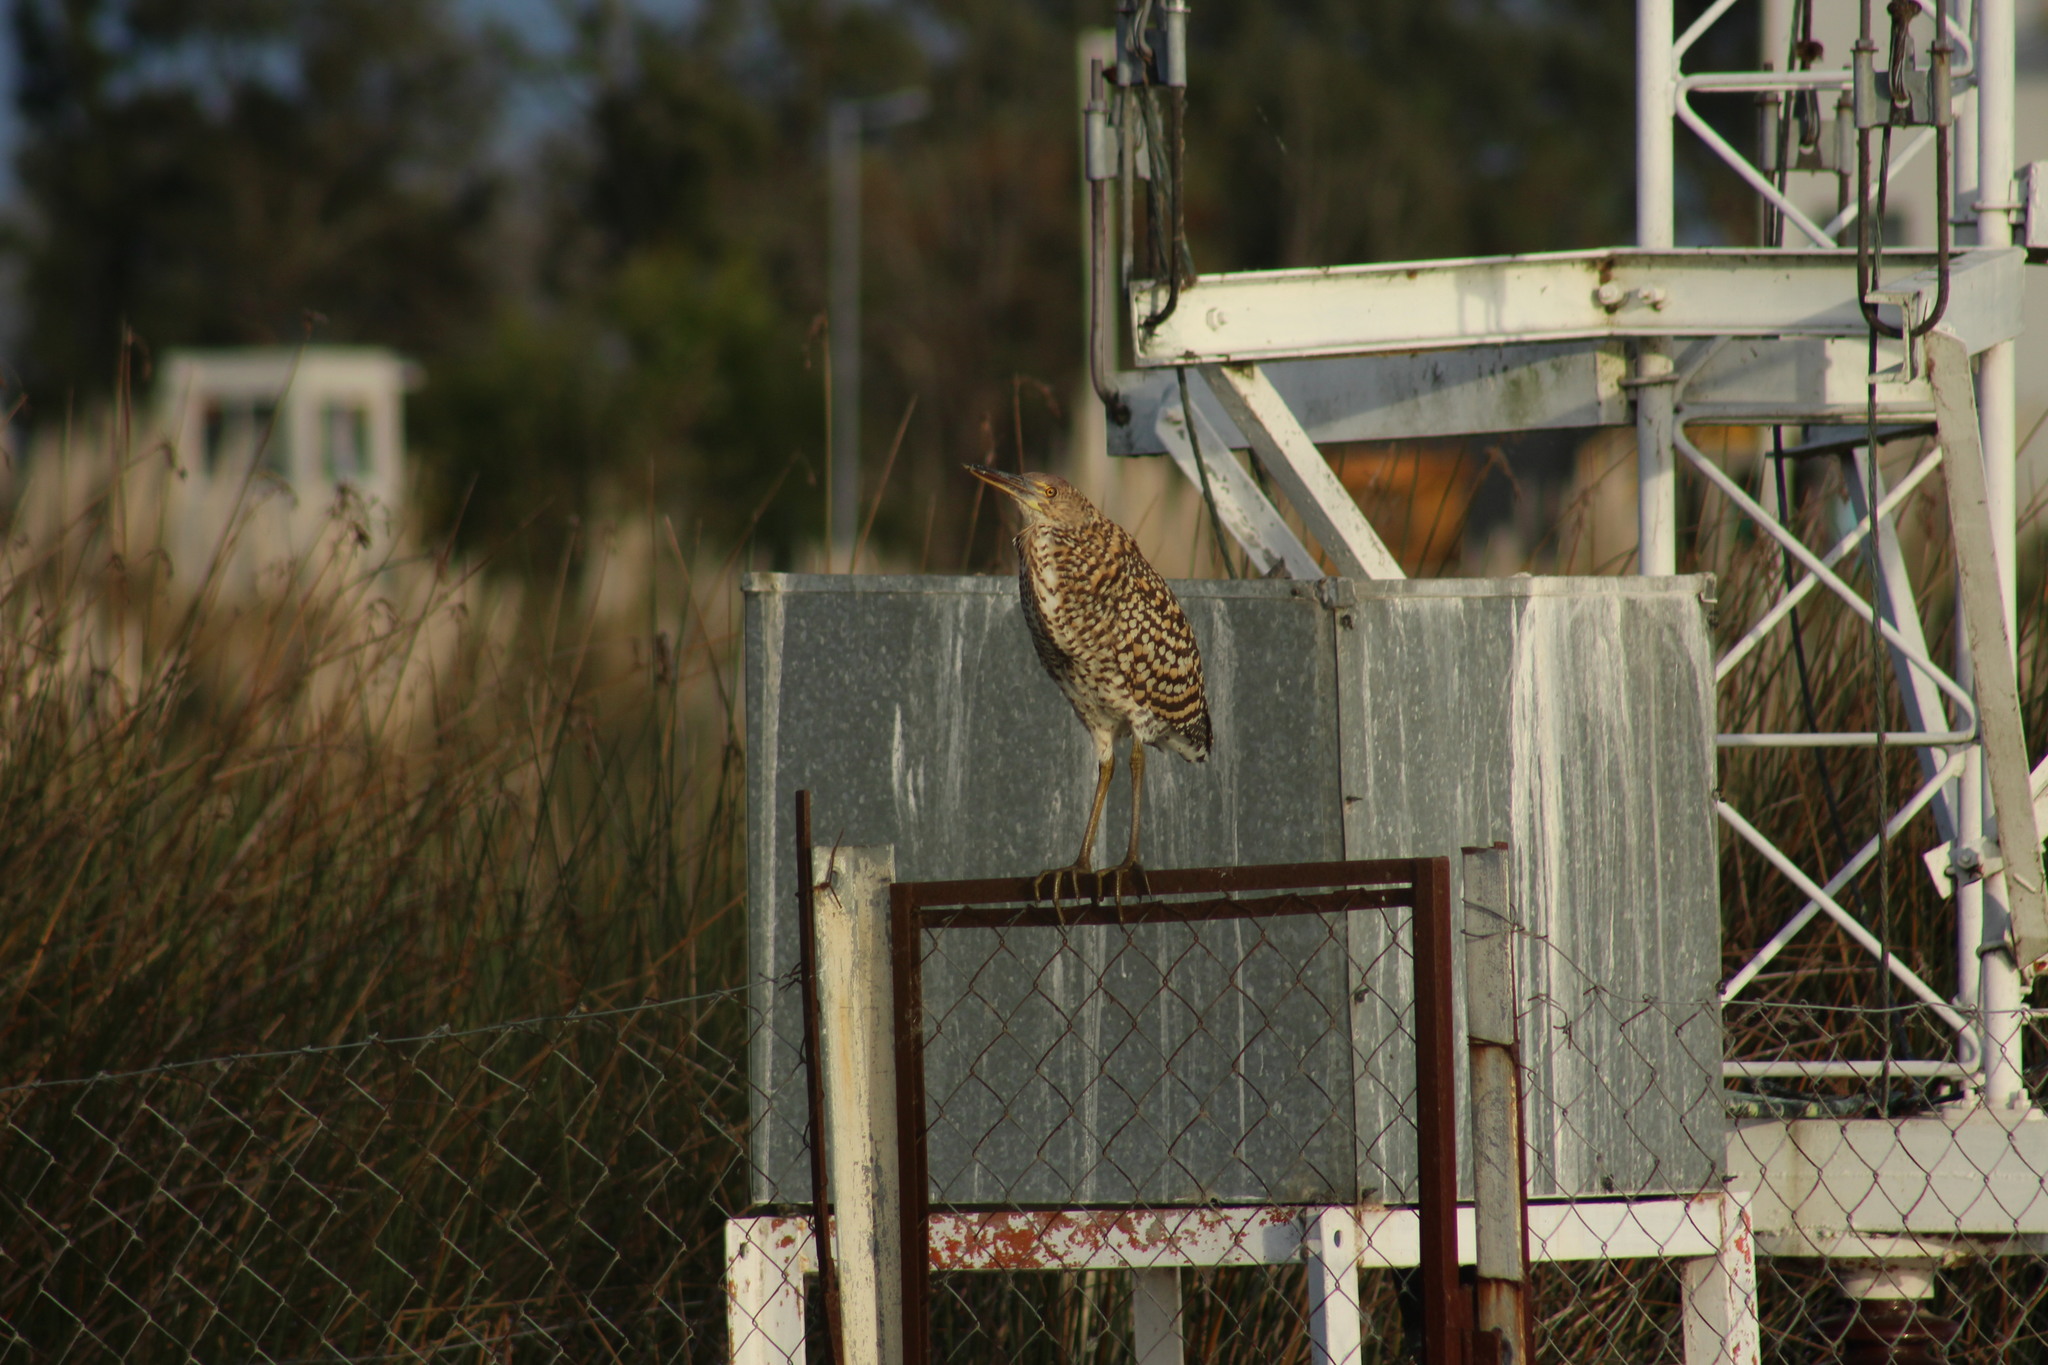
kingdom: Animalia
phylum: Chordata
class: Aves
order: Pelecaniformes
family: Ardeidae
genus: Tigrisoma
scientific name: Tigrisoma lineatum
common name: Rufescent tiger-heron
